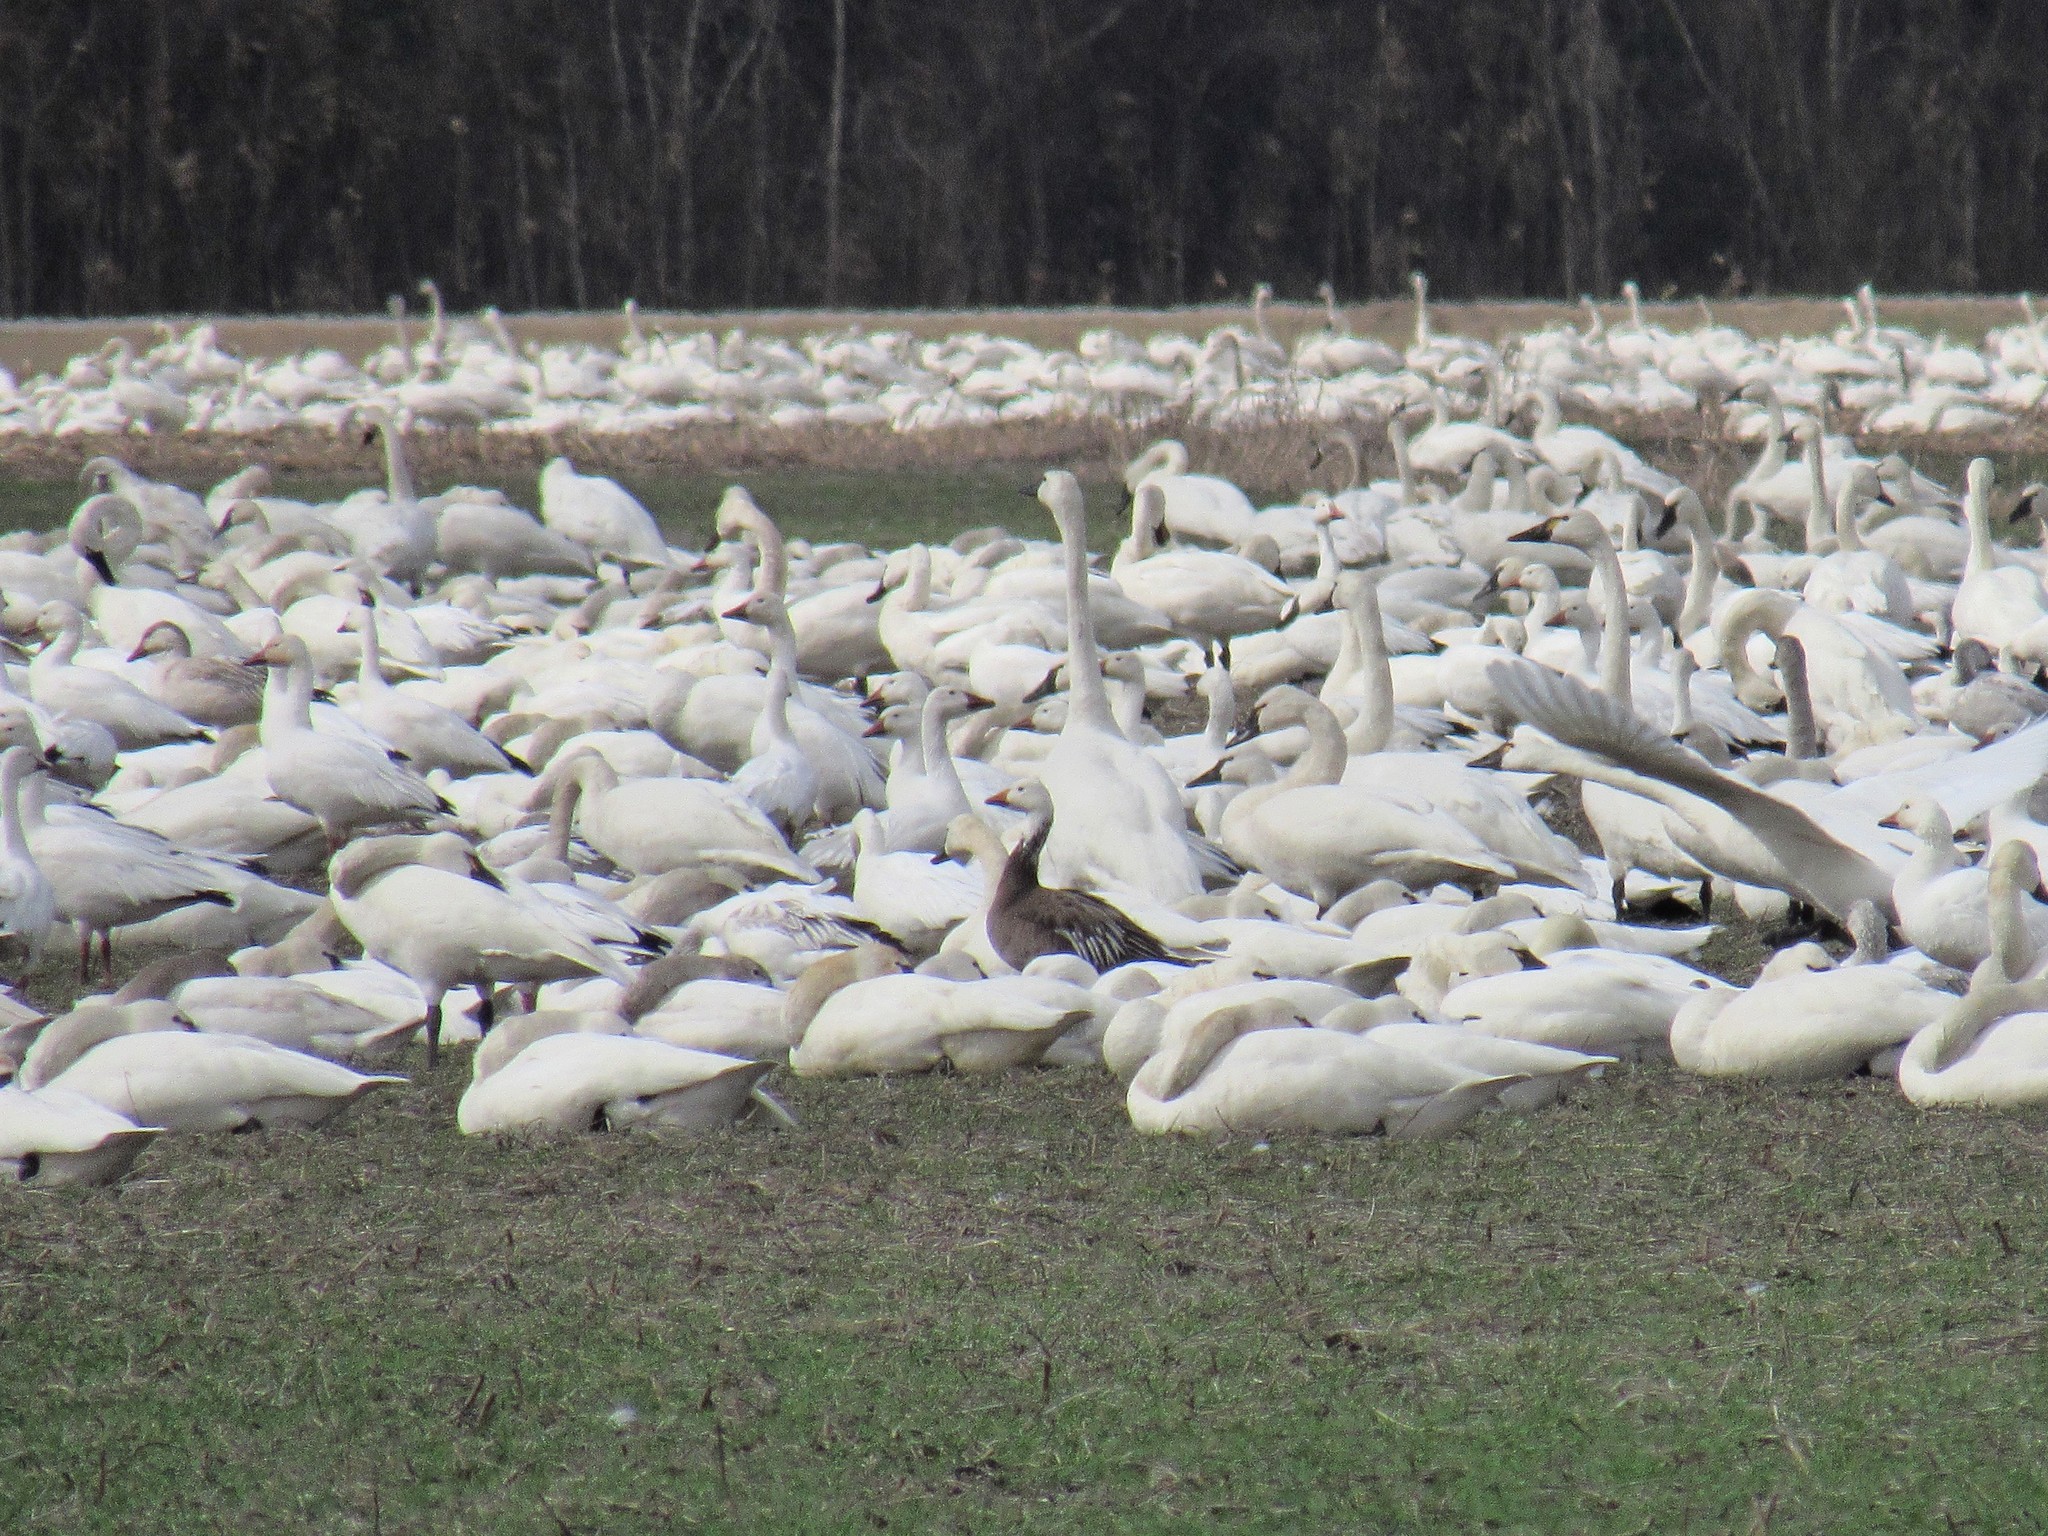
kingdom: Animalia
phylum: Chordata
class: Aves
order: Anseriformes
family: Anatidae
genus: Anser
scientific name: Anser caerulescens
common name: Snow goose
